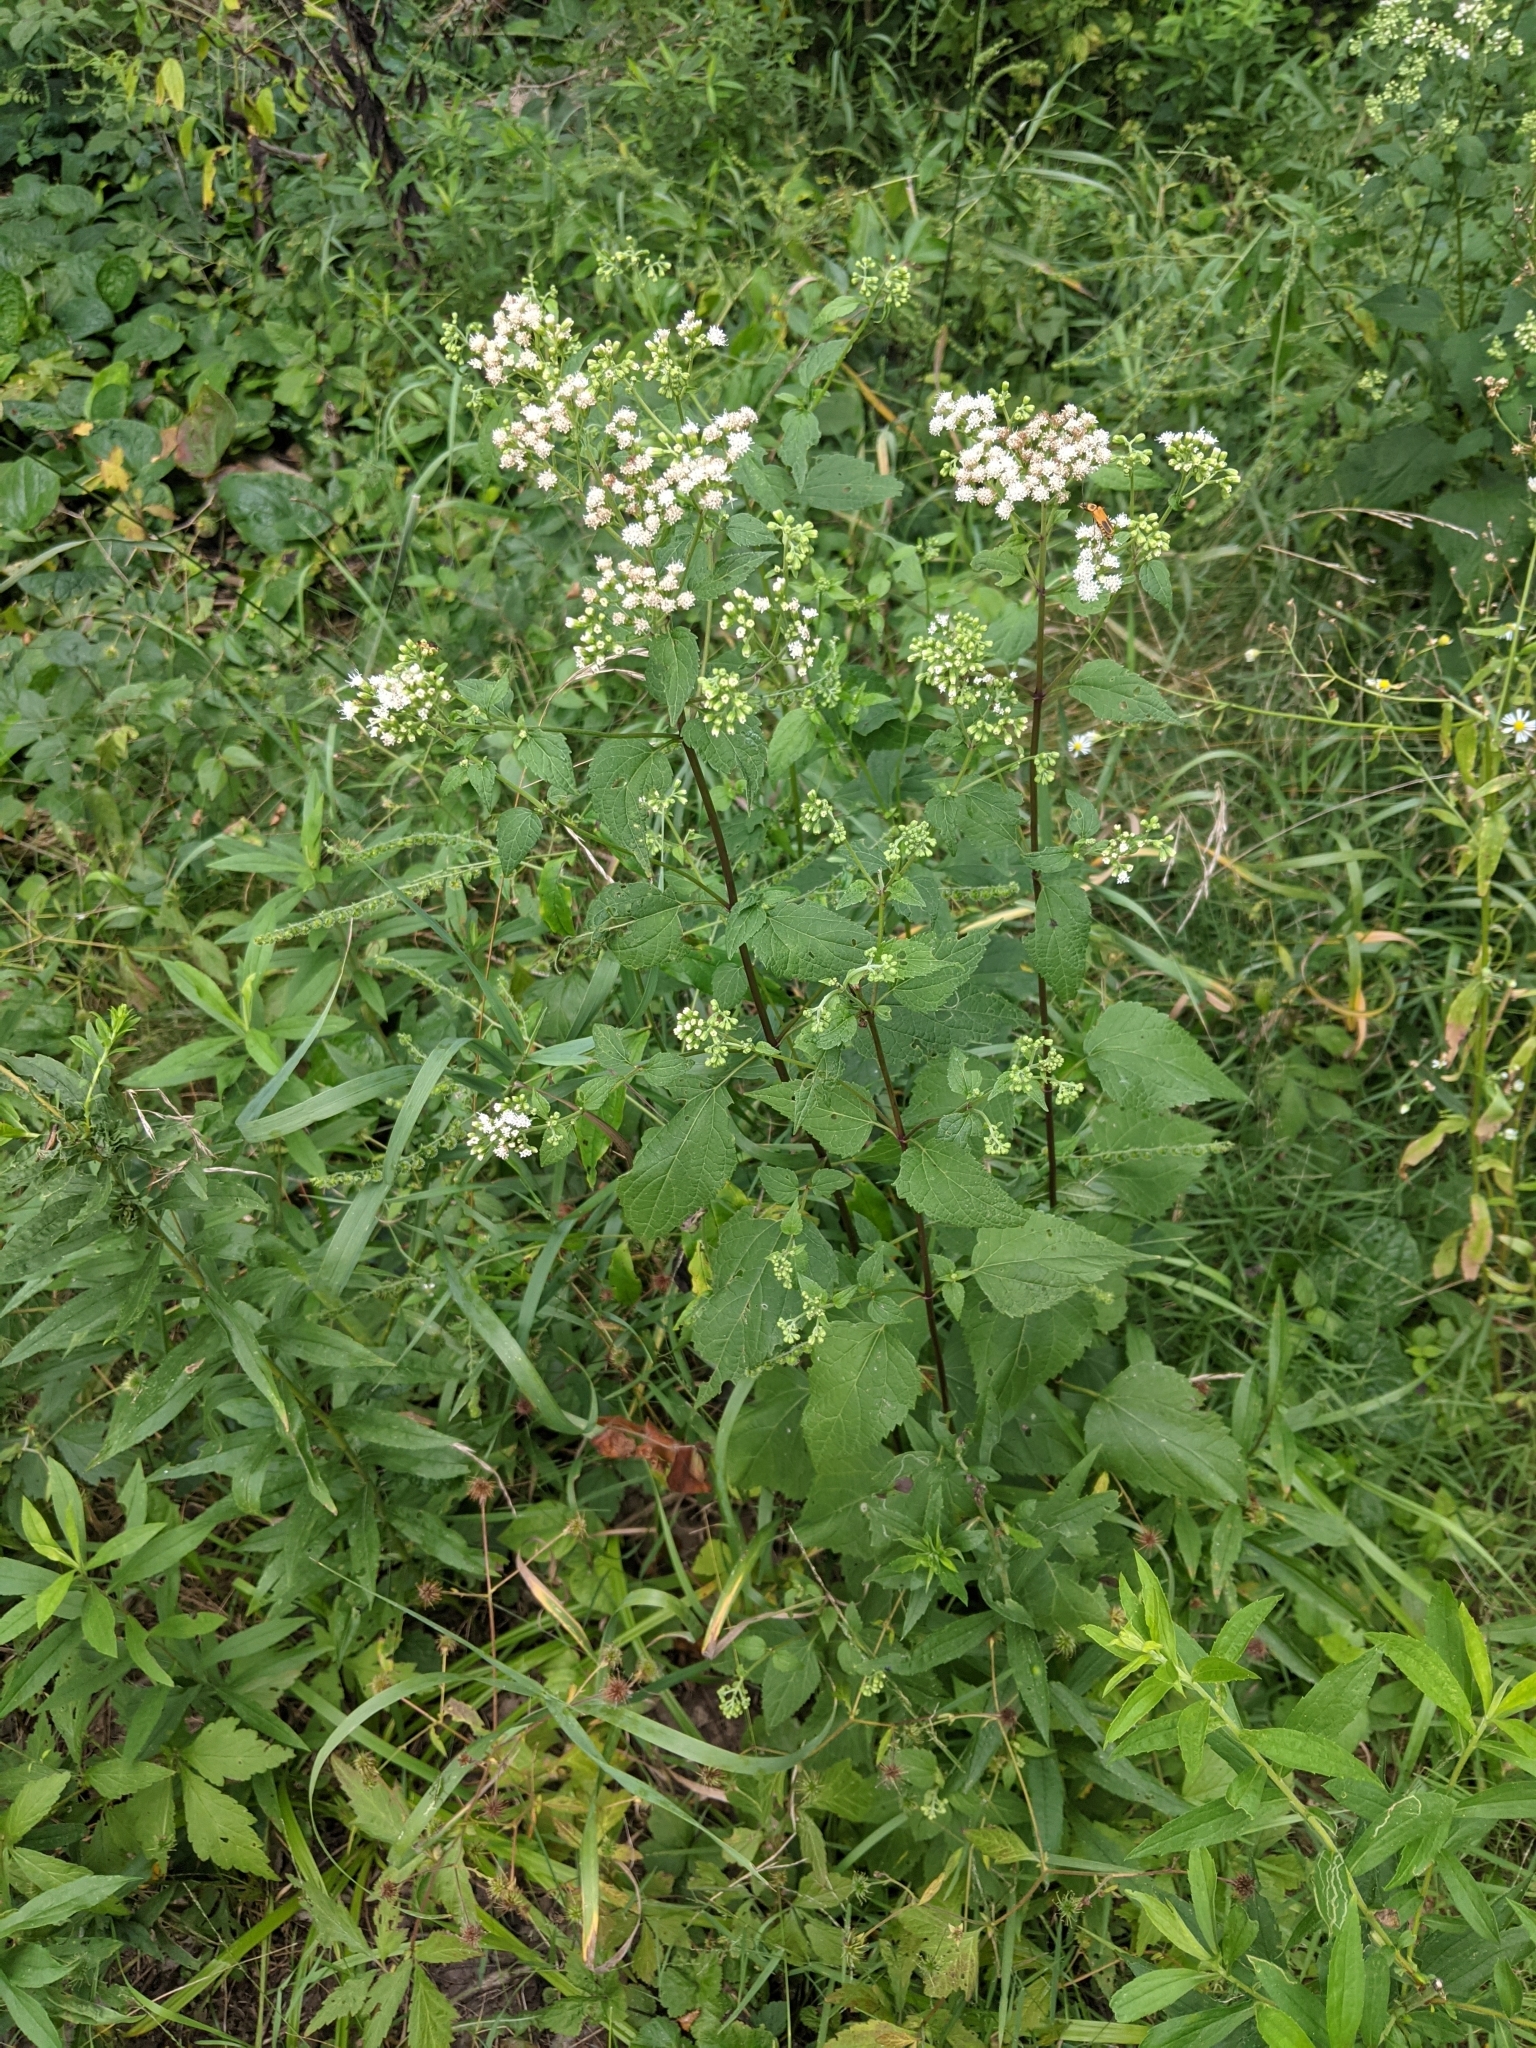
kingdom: Plantae
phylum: Tracheophyta
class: Magnoliopsida
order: Asterales
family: Asteraceae
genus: Ageratina
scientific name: Ageratina altissima
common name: White snakeroot
